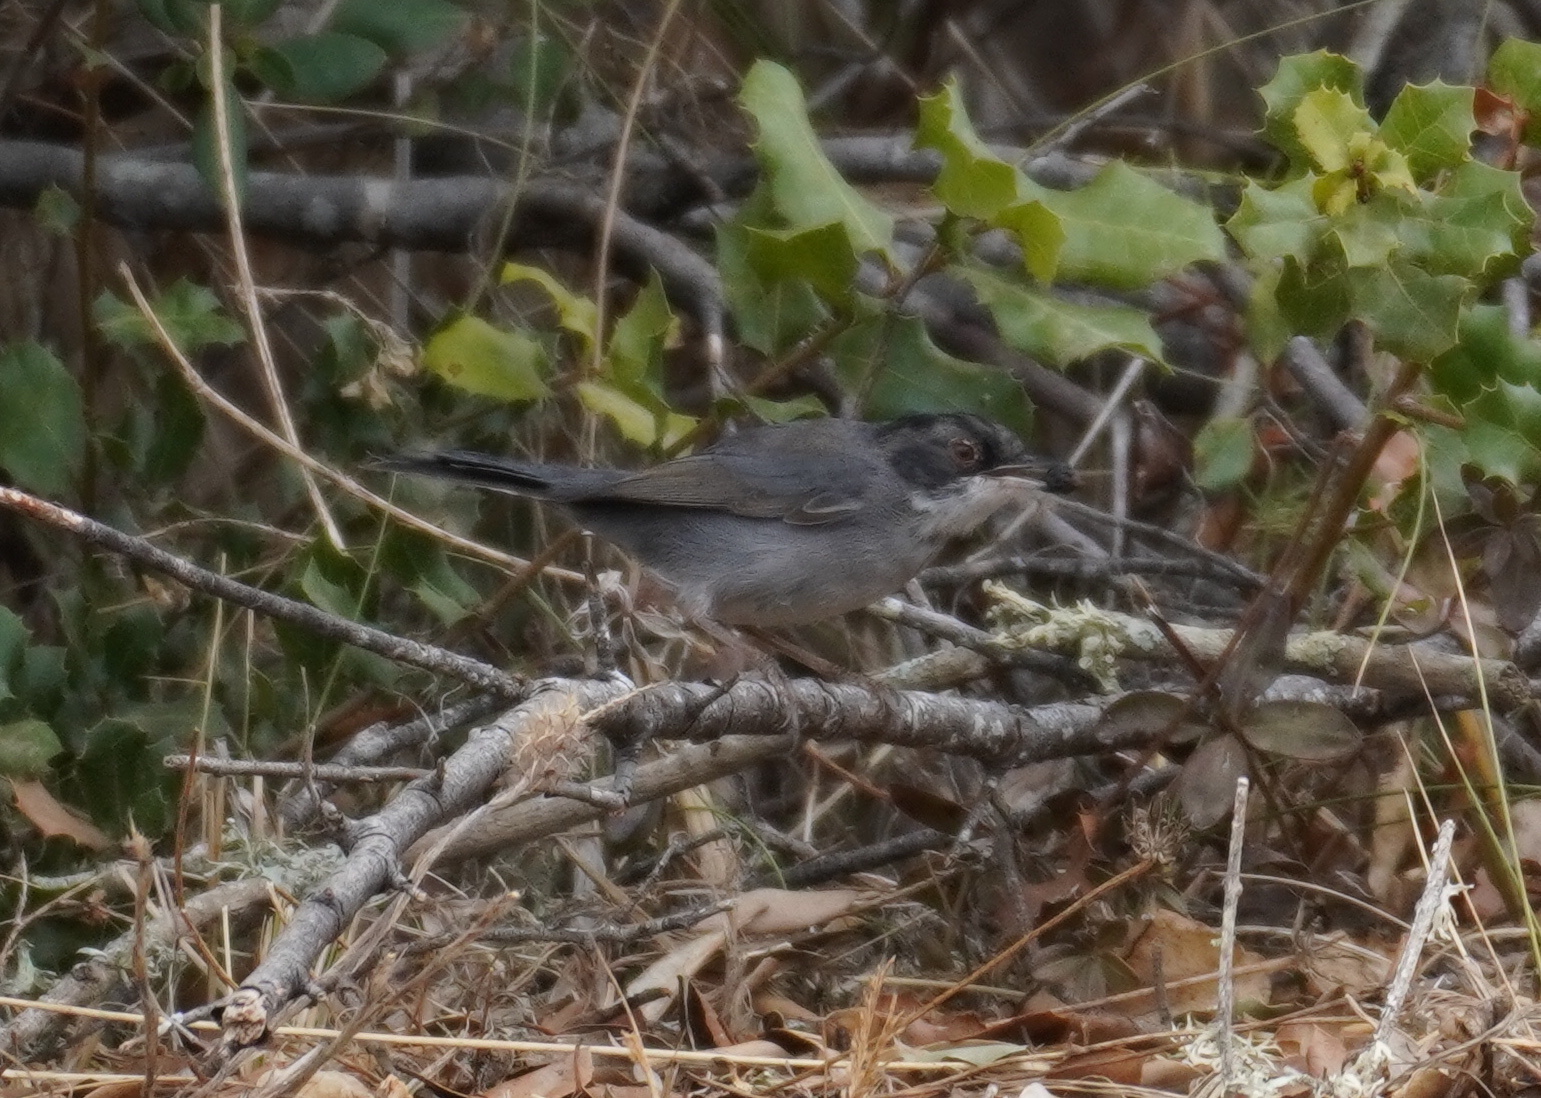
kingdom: Animalia
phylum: Chordata
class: Aves
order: Passeriformes
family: Sylviidae
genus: Curruca
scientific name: Curruca melanocephala
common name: Sardinian warbler
